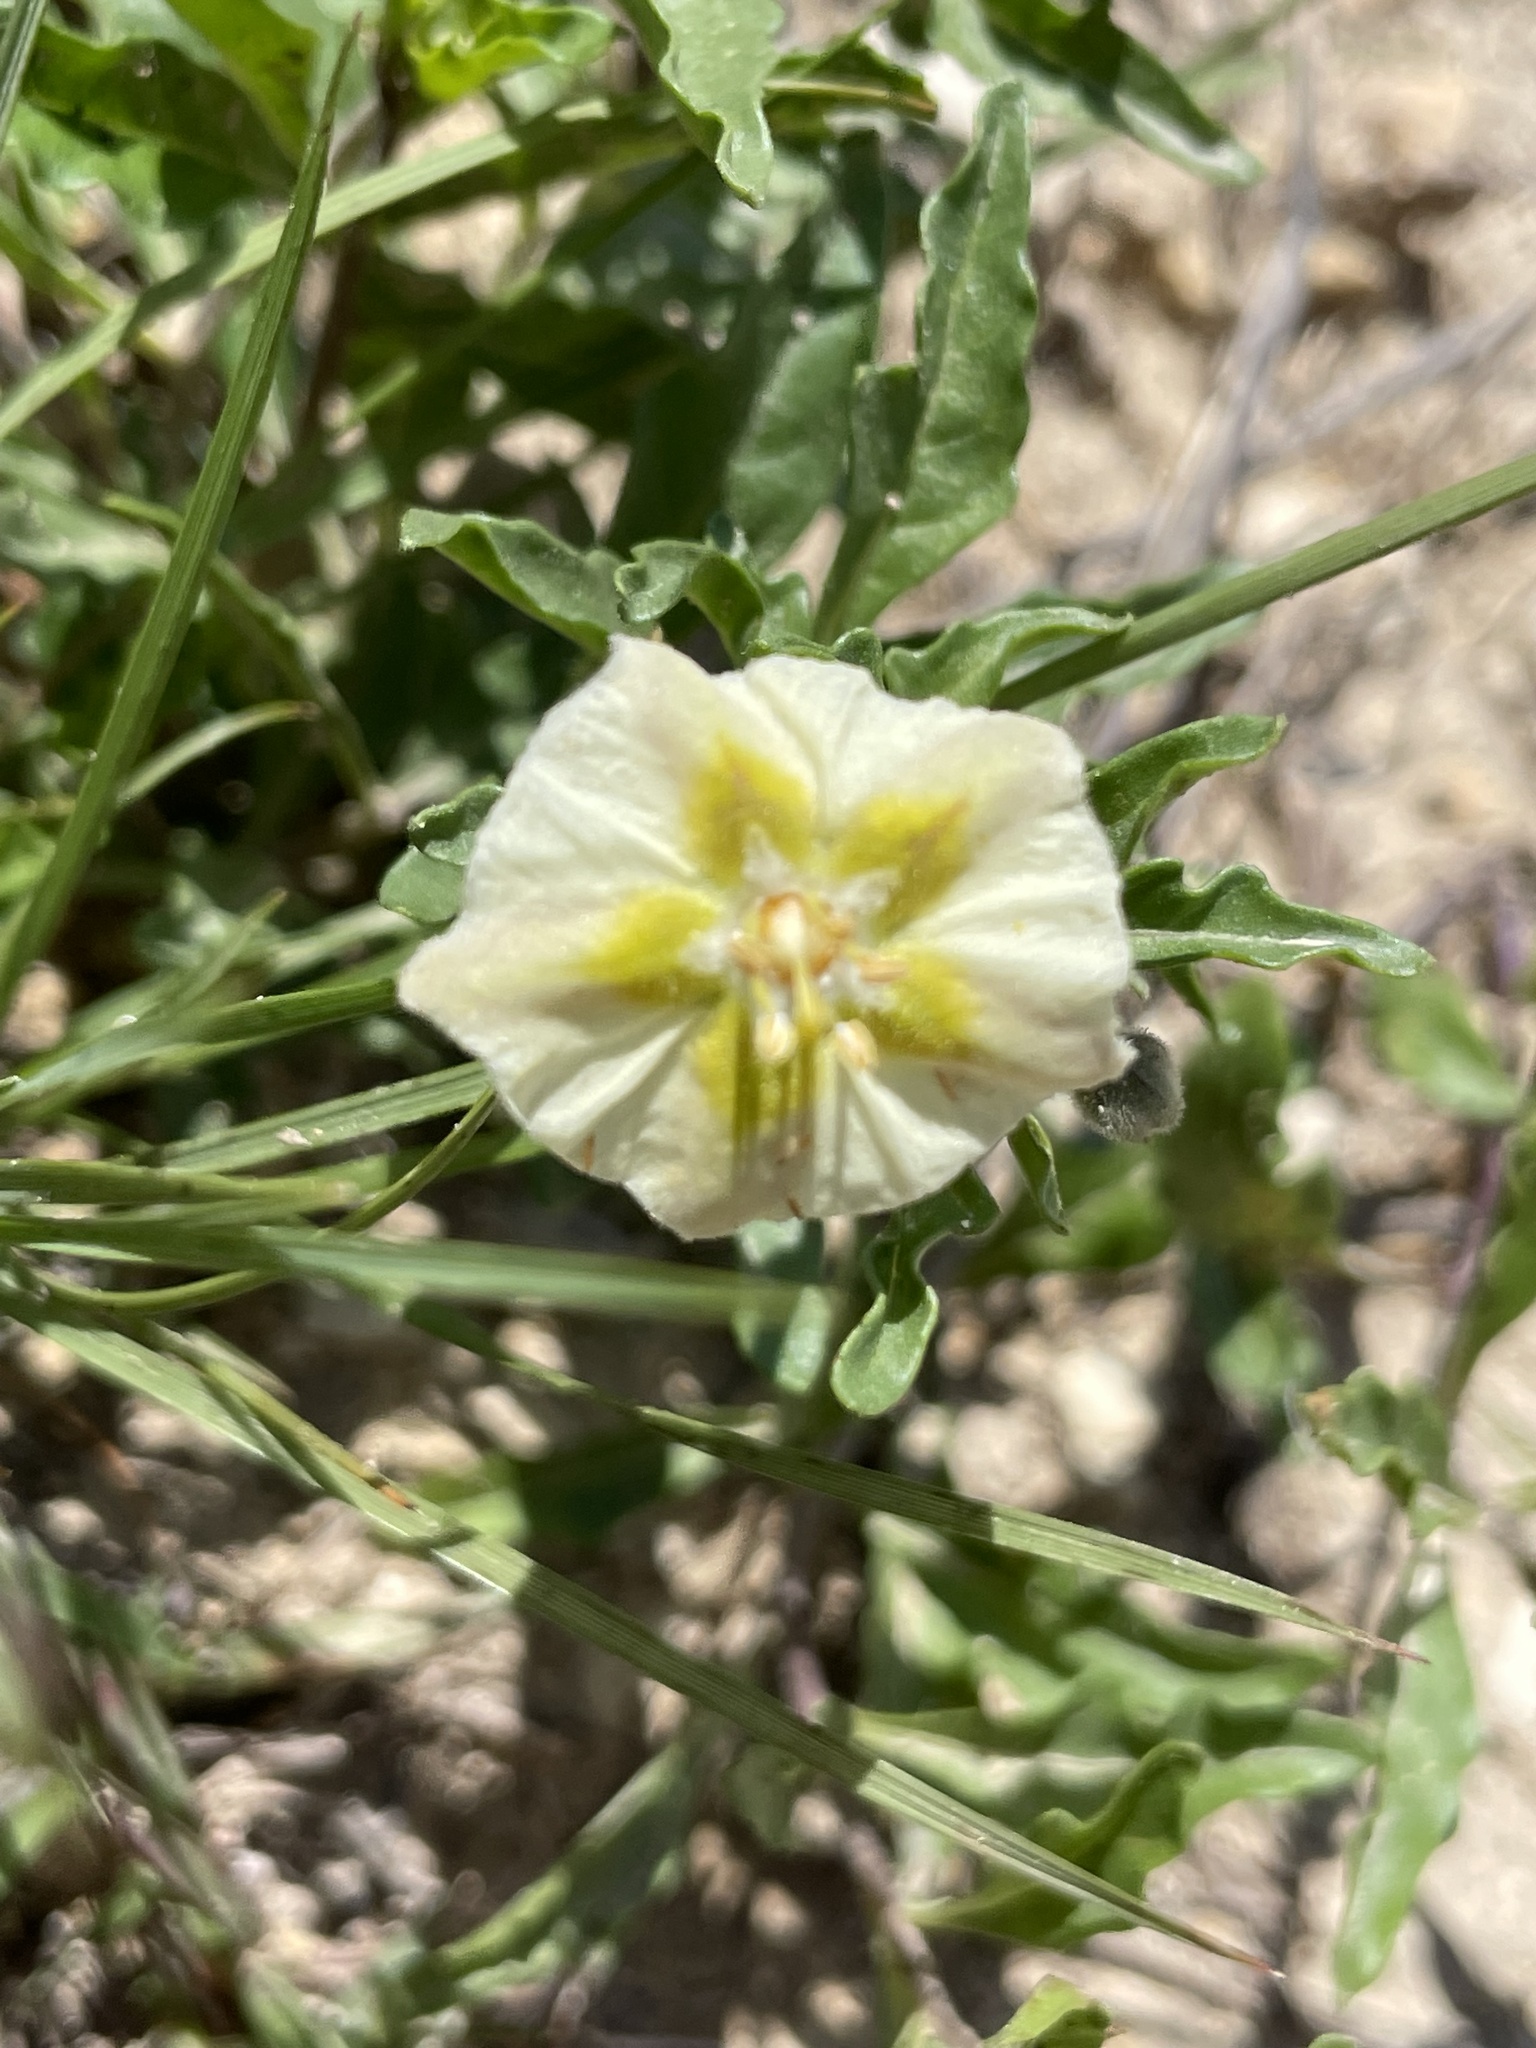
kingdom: Plantae
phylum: Tracheophyta
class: Magnoliopsida
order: Solanales
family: Solanaceae
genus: Chamaesaracha
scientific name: Chamaesaracha edwardsiana
